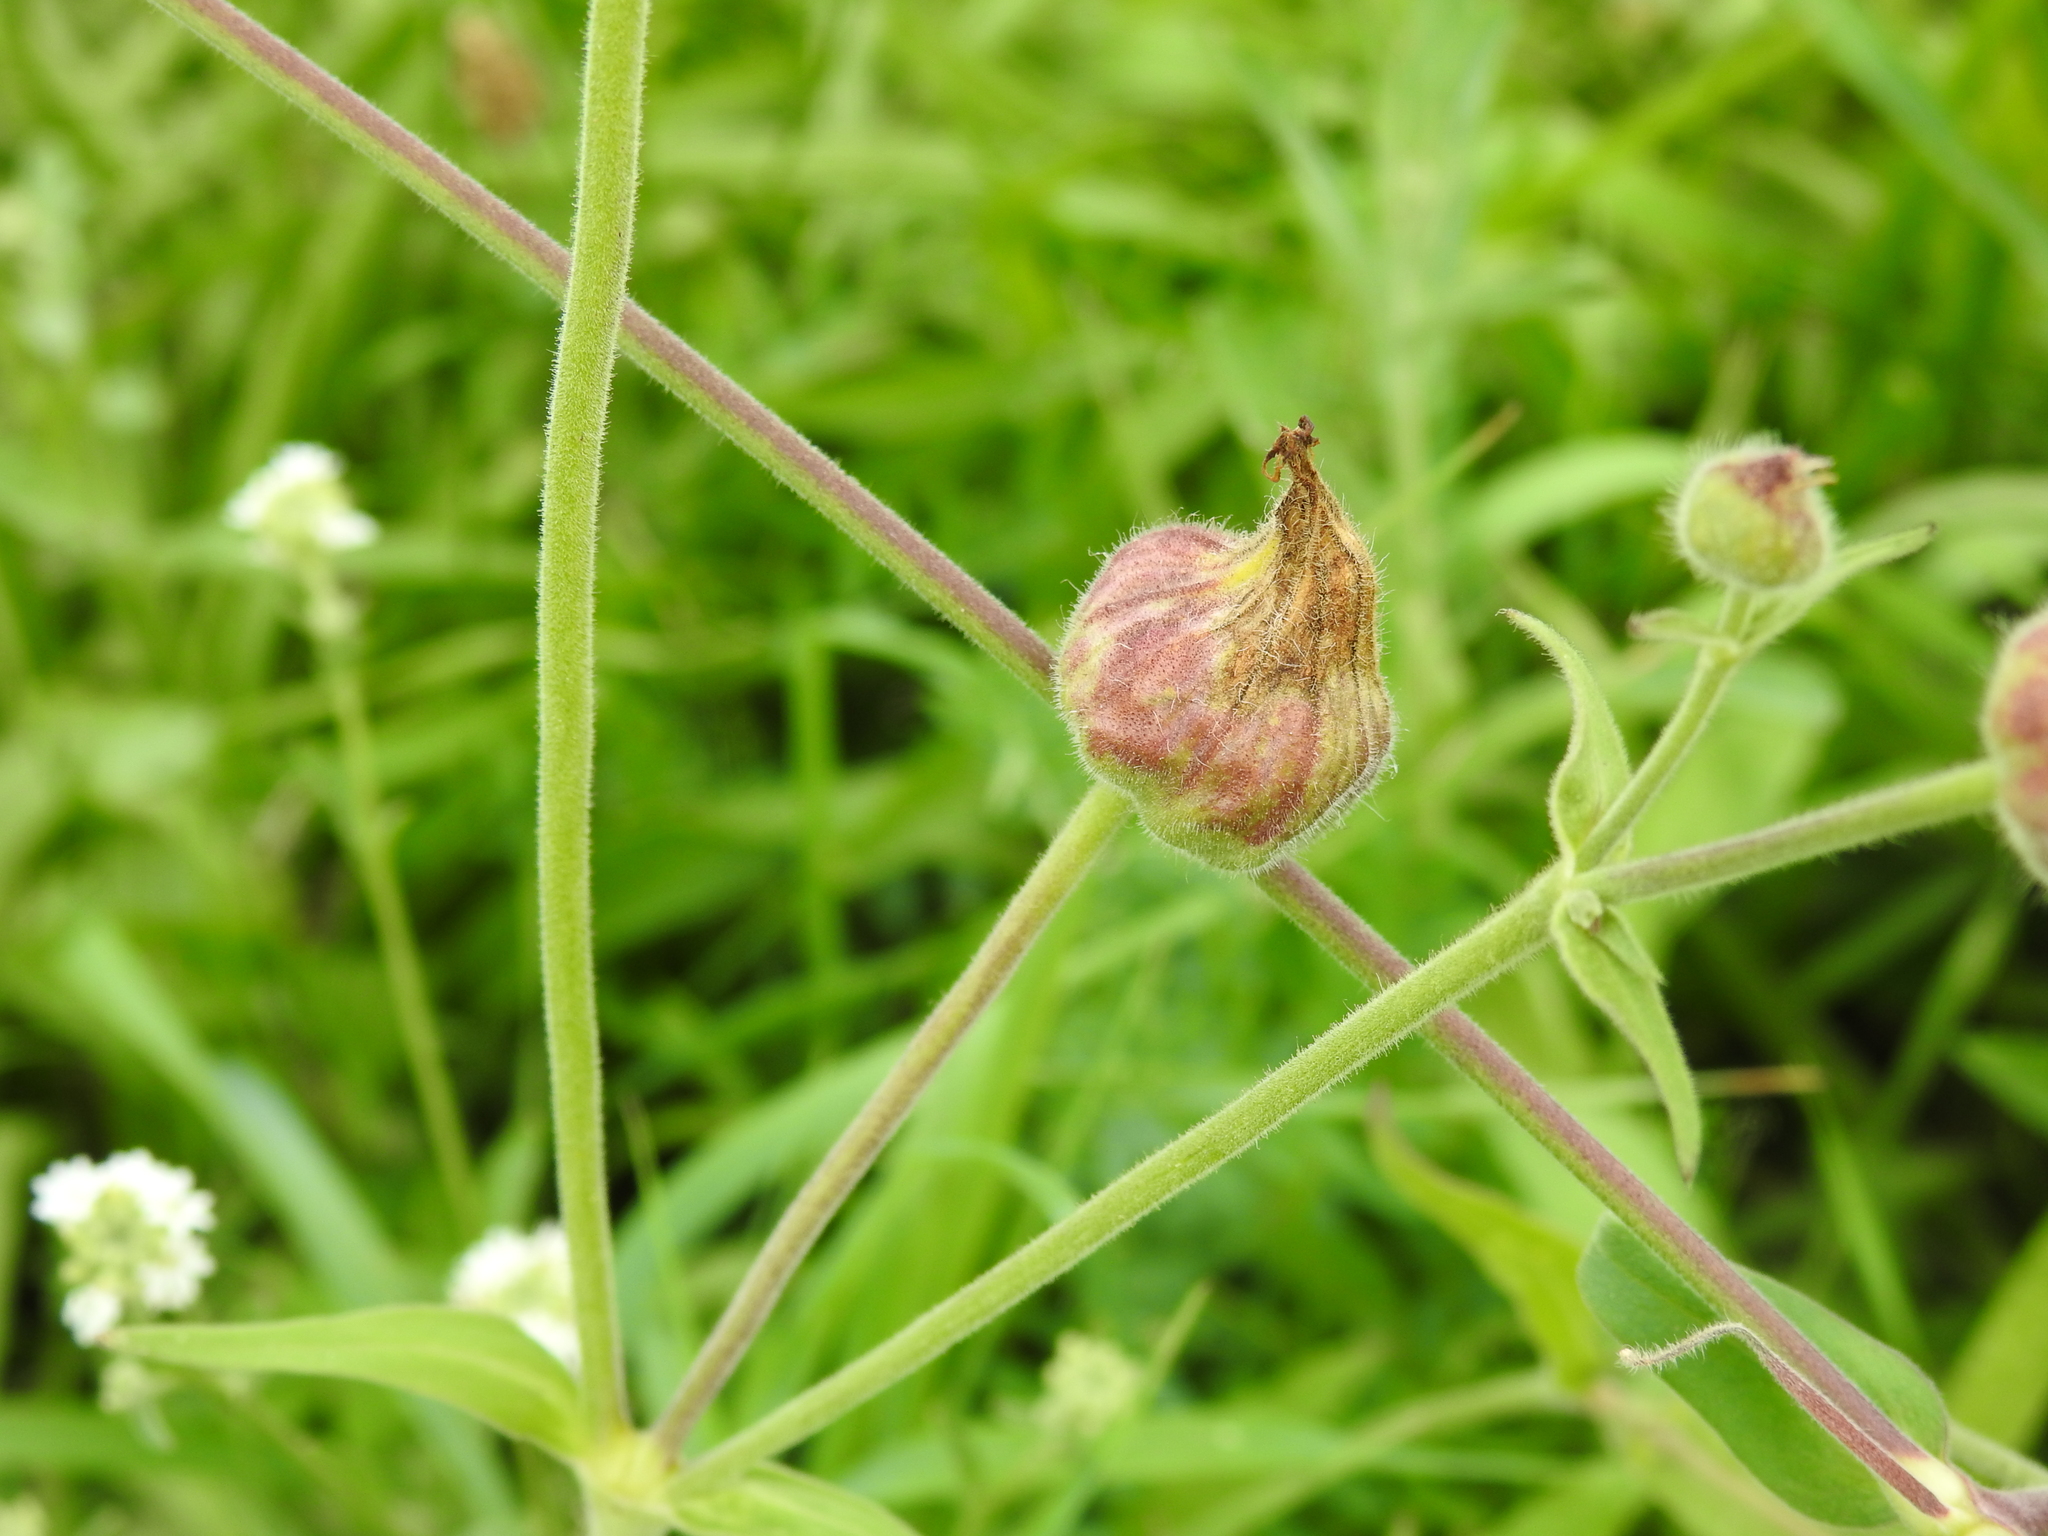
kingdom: Fungi
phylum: Basidiomycota
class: Ustilaginomycetes
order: Urocystidales
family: Glomosporiaceae
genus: Thecaphora
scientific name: Thecaphora melandrii
